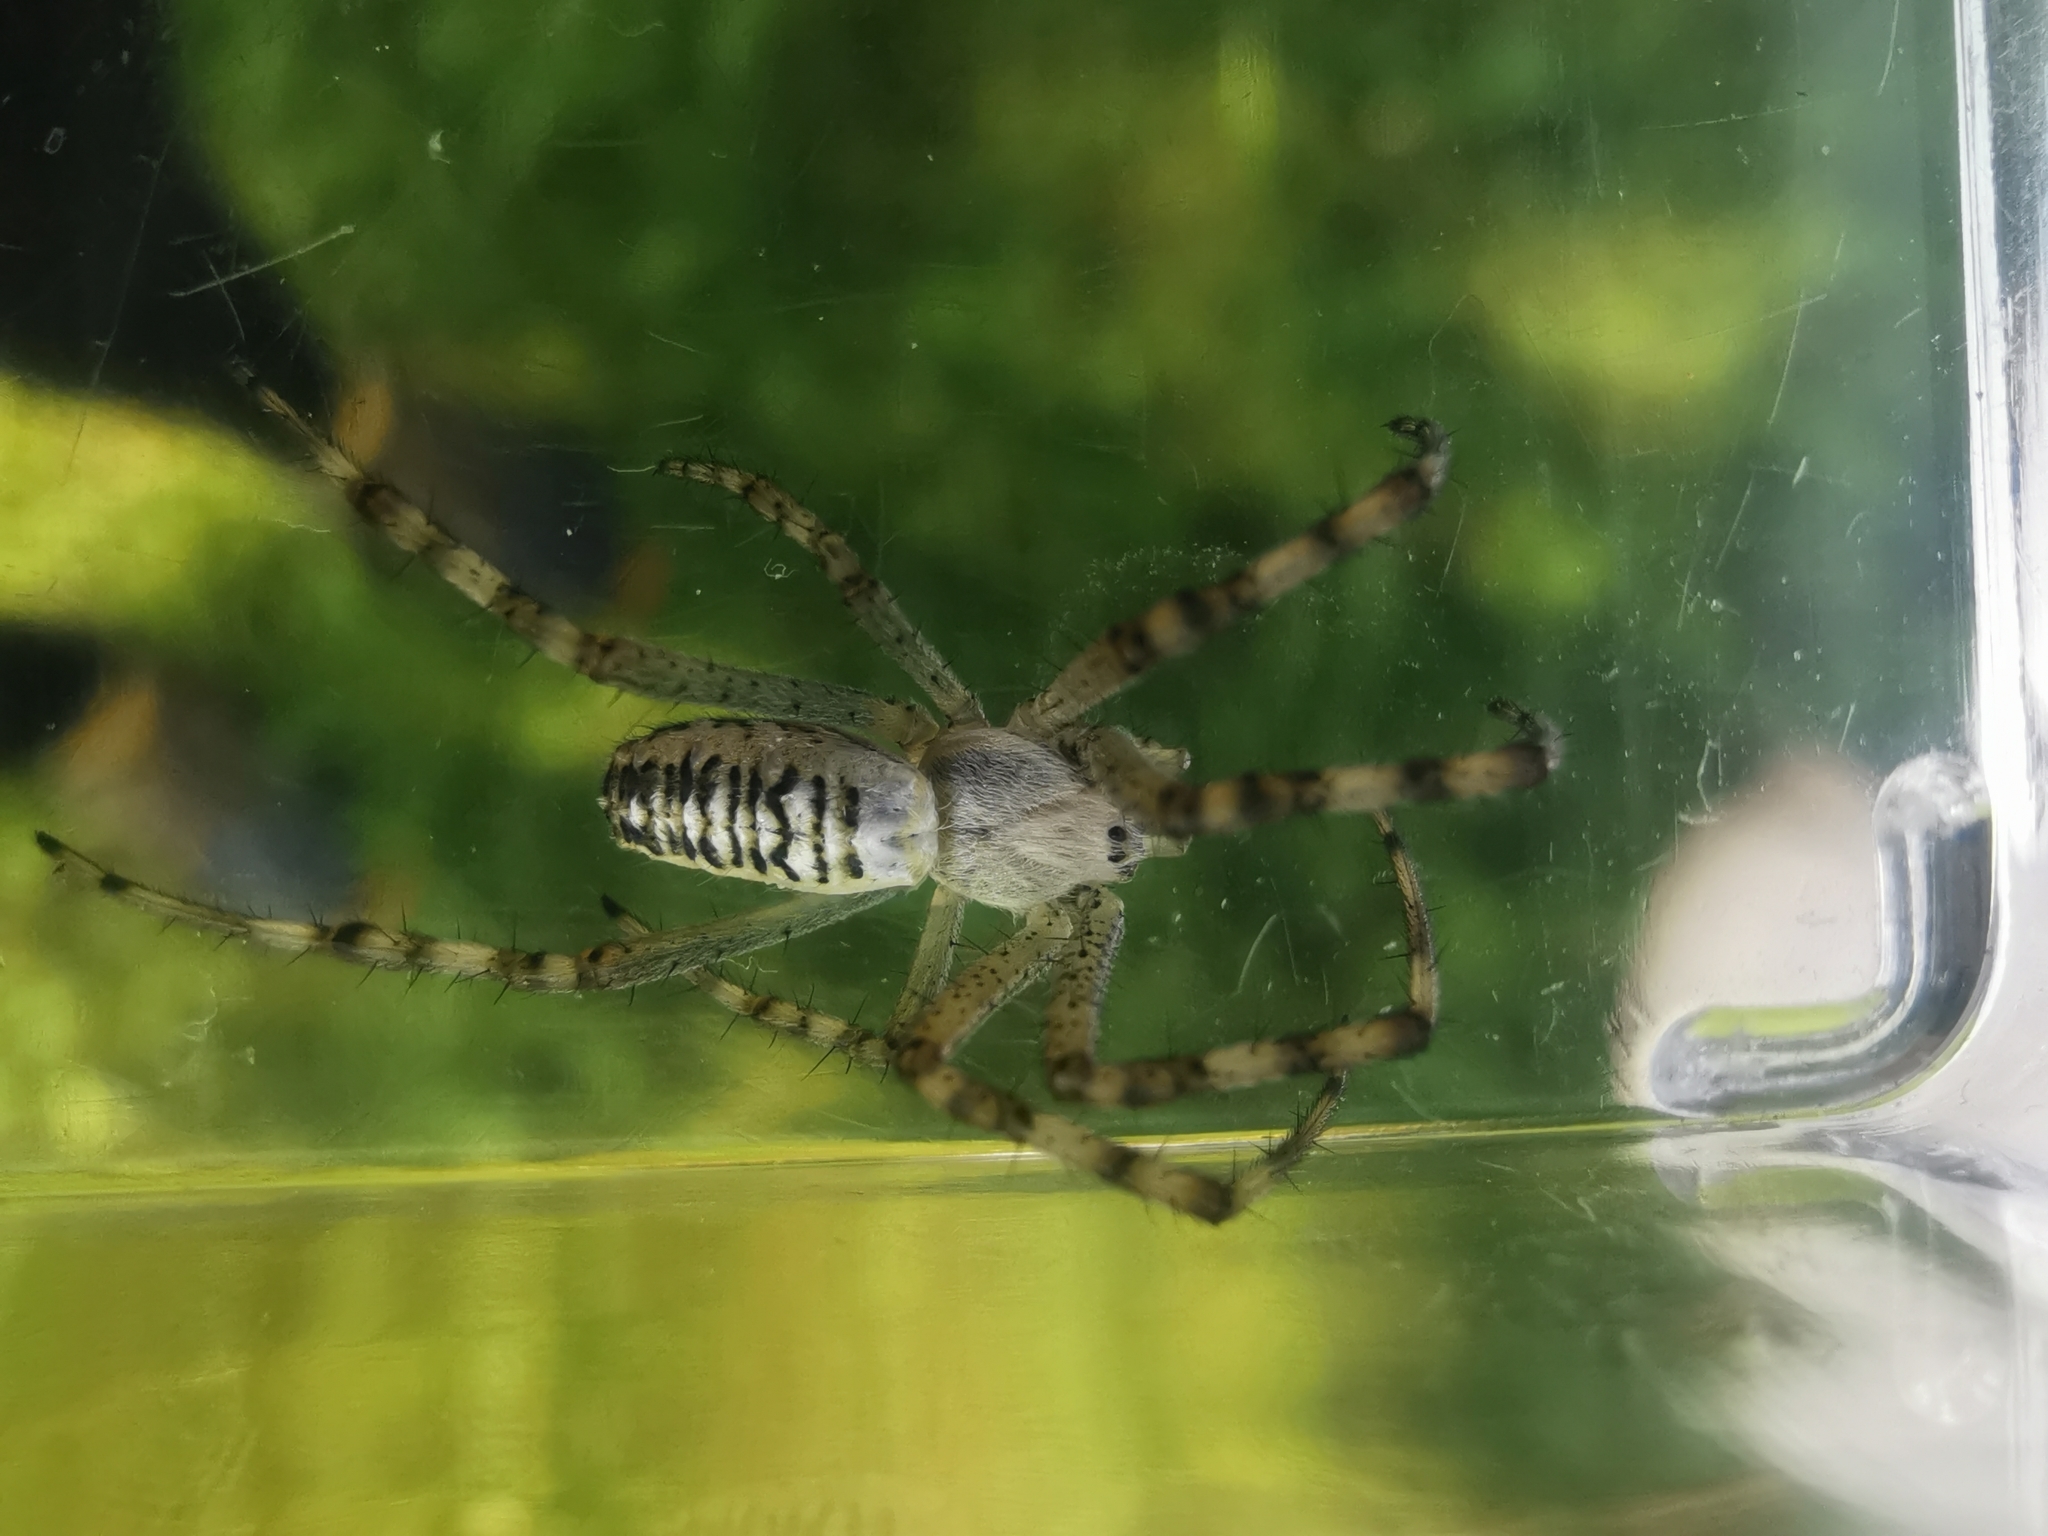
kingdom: Animalia
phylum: Arthropoda
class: Arachnida
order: Araneae
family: Araneidae
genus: Argiope
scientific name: Argiope bruennichi
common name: Wasp spider
